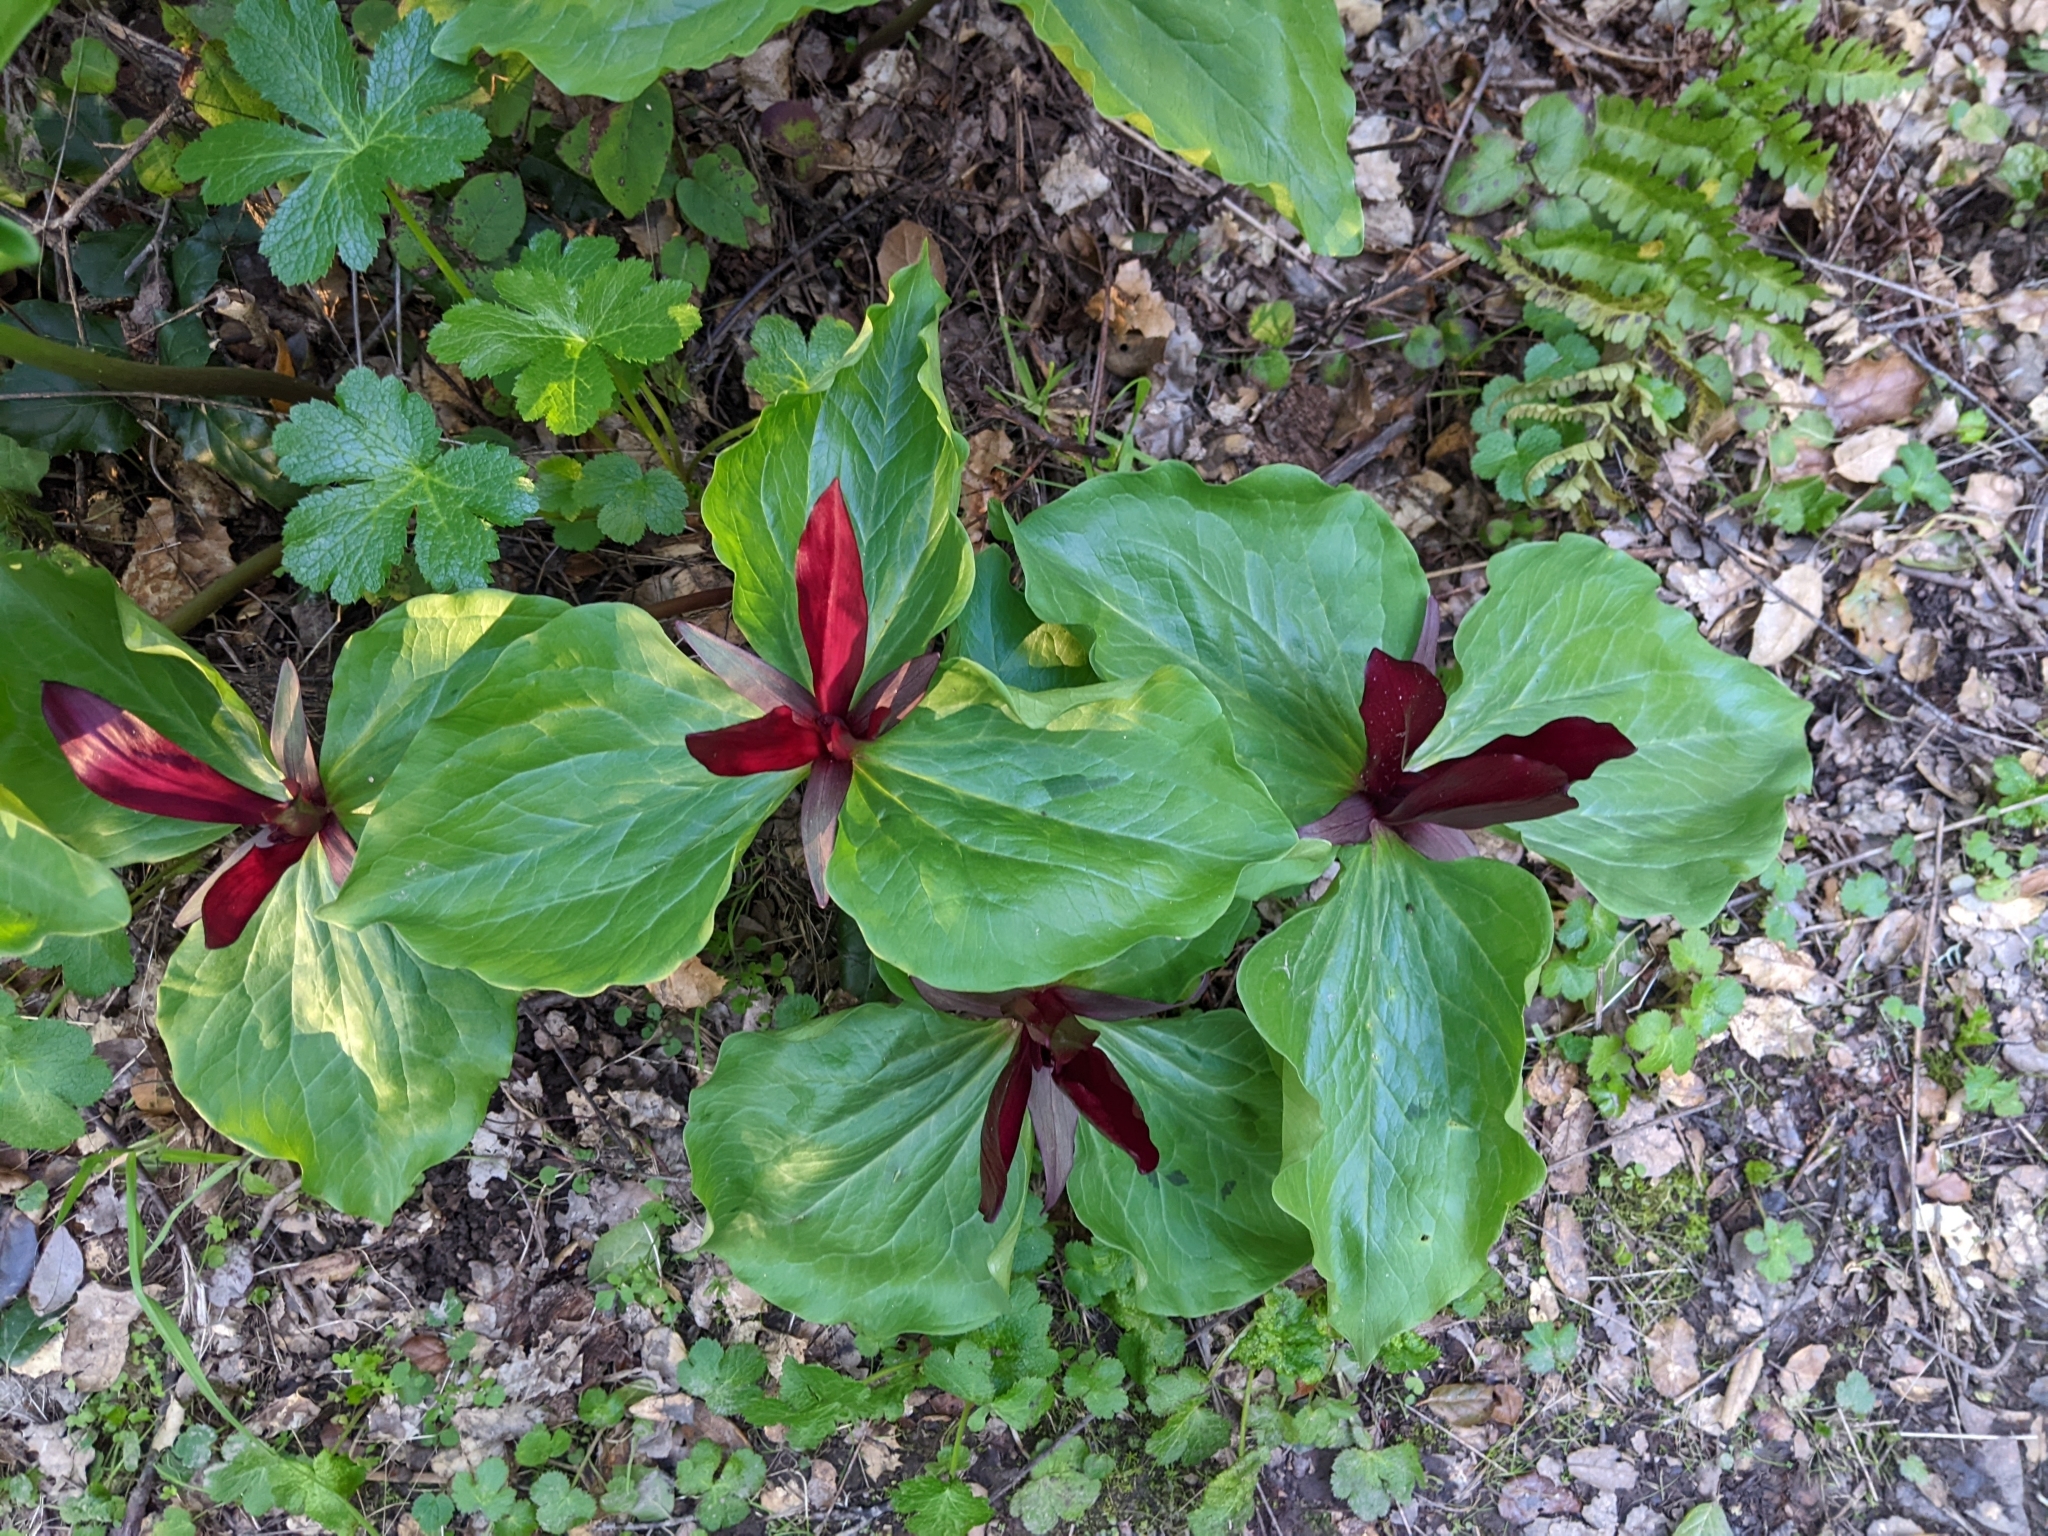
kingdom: Plantae
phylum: Tracheophyta
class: Liliopsida
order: Liliales
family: Melanthiaceae
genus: Trillium
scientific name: Trillium chloropetalum
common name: Giant trillium
